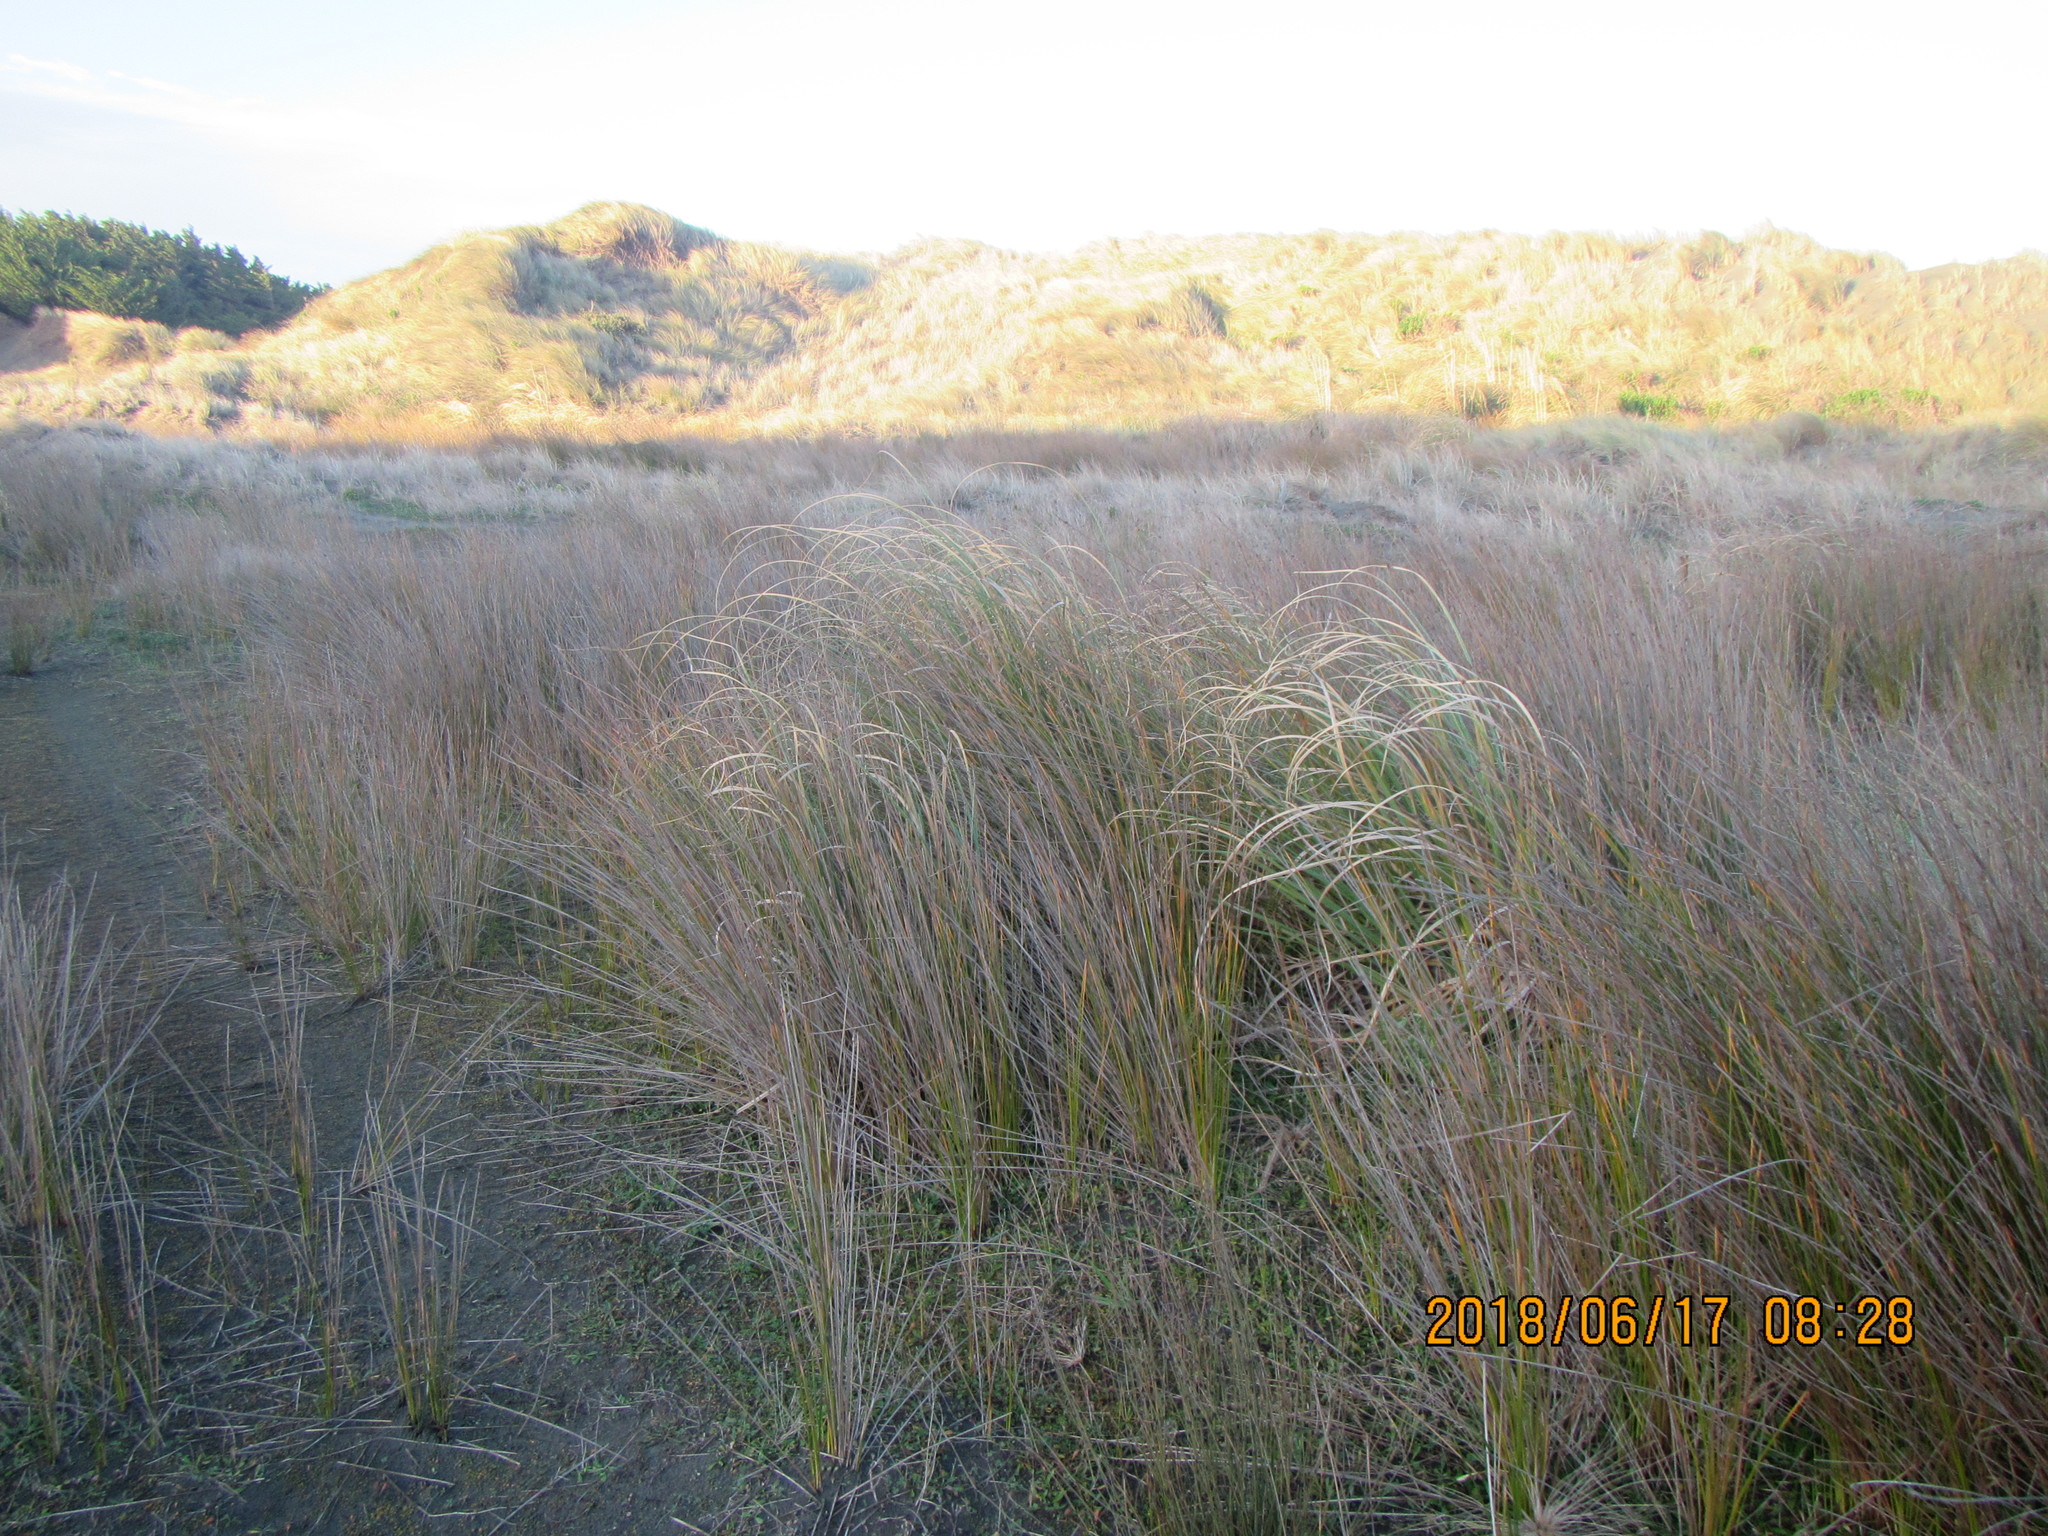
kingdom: Plantae
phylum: Tracheophyta
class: Liliopsida
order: Poales
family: Cyperaceae
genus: Ficinia
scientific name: Ficinia nodosa
